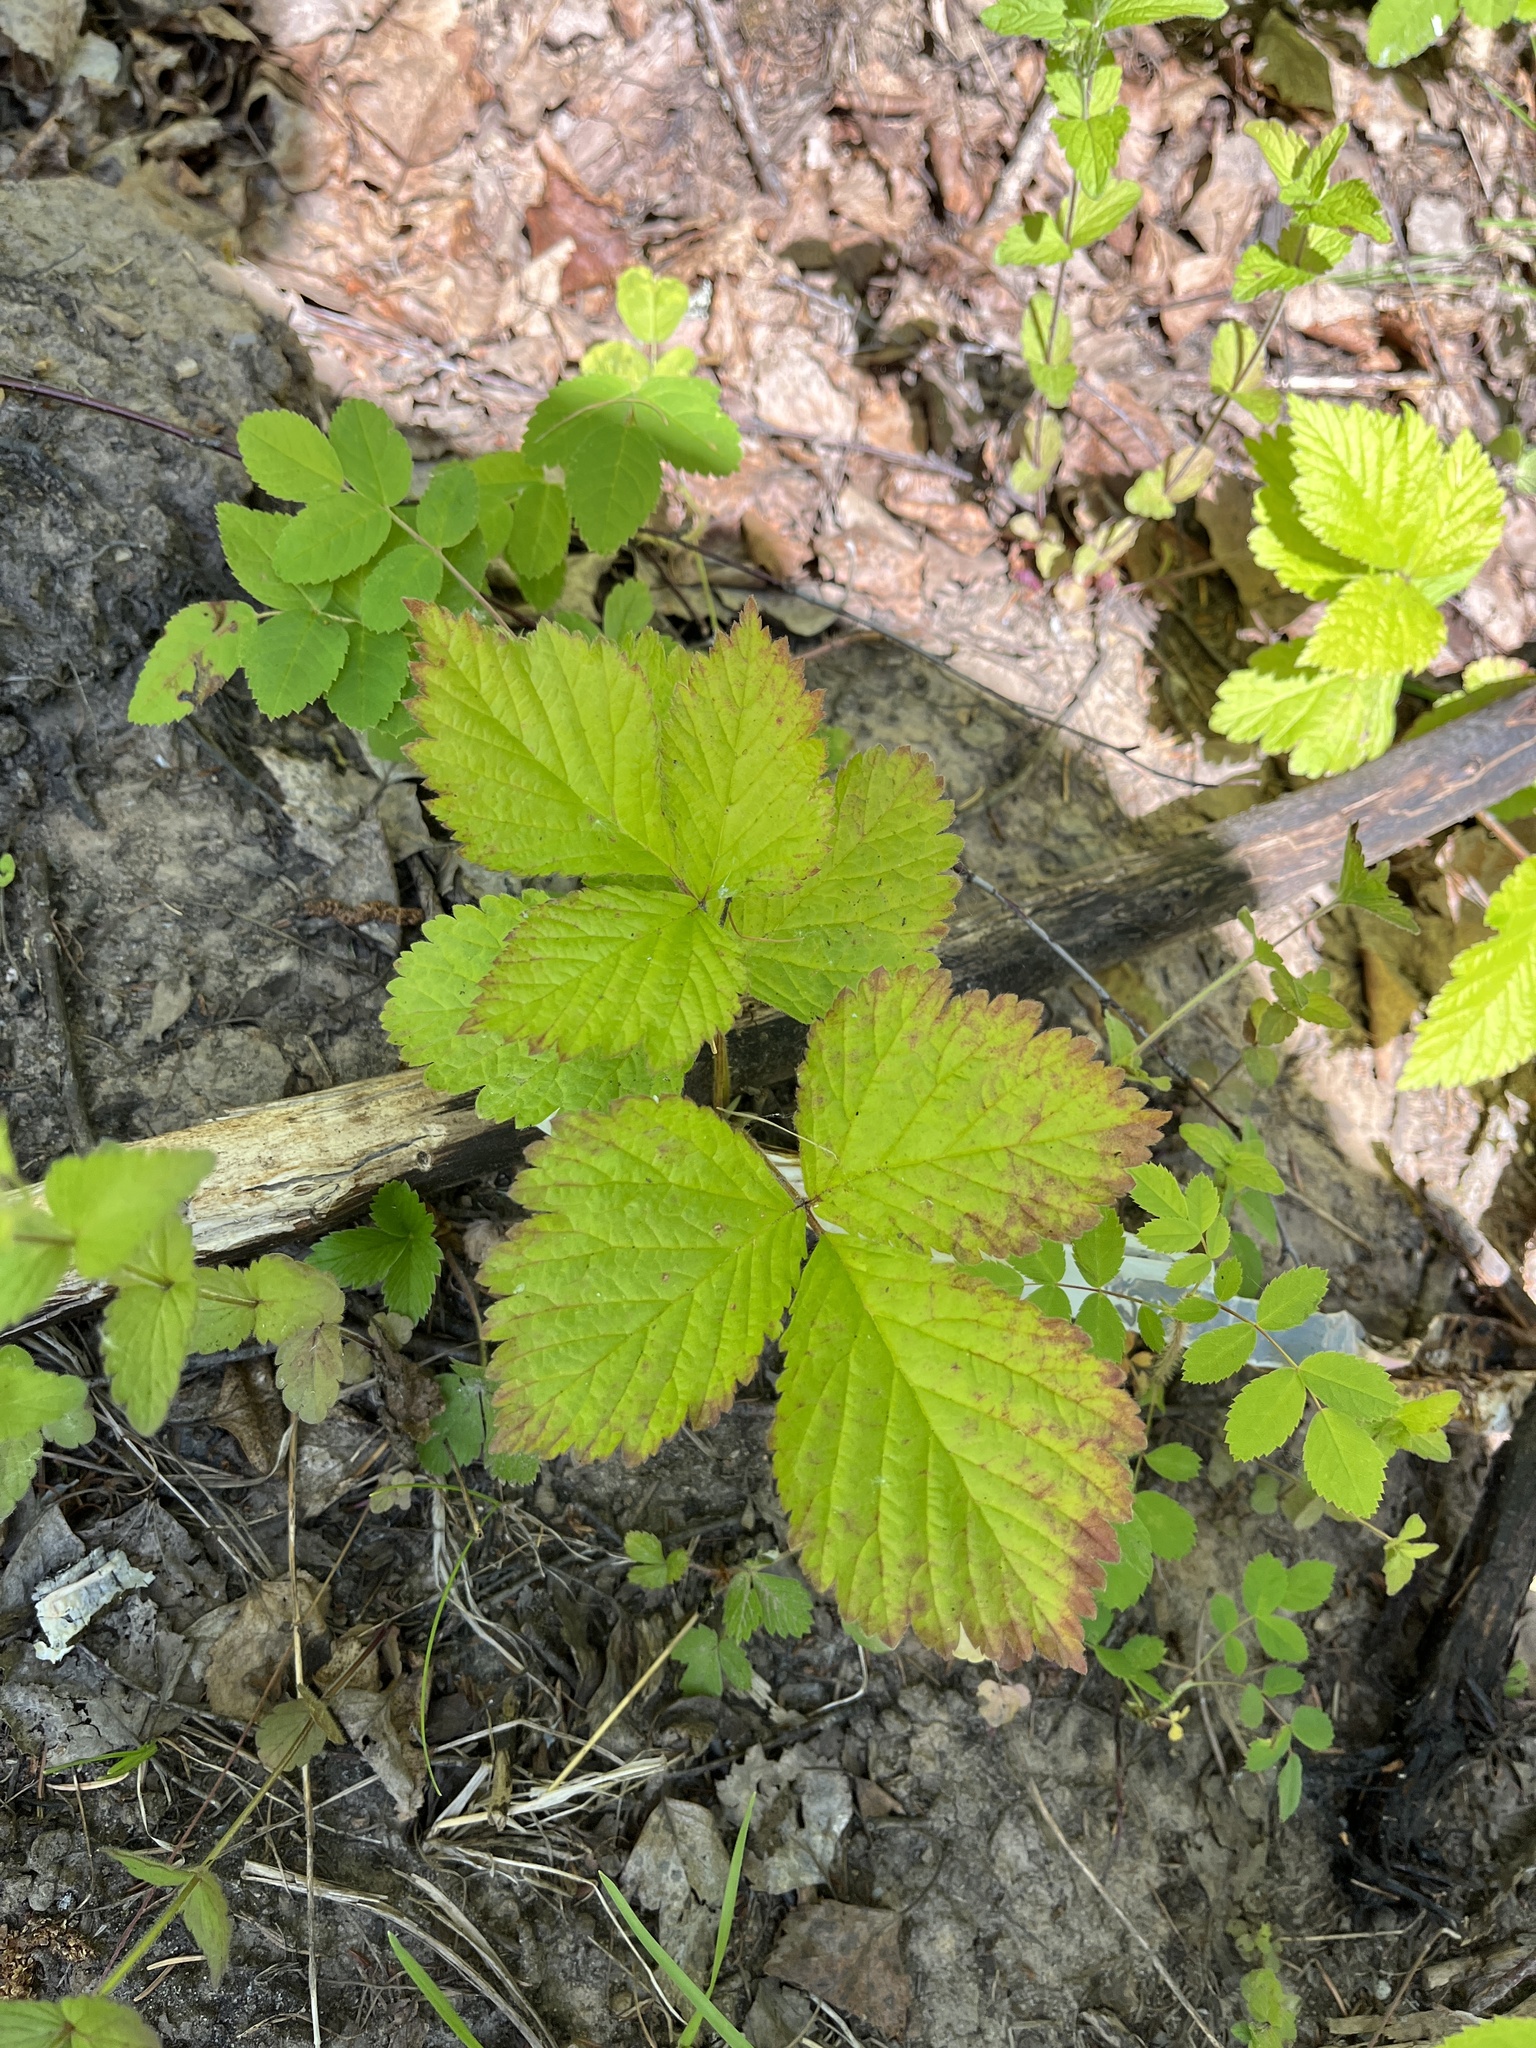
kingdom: Plantae
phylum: Tracheophyta
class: Magnoliopsida
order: Rosales
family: Rosaceae
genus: Rubus
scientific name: Rubus saxatilis
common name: Stone bramble
